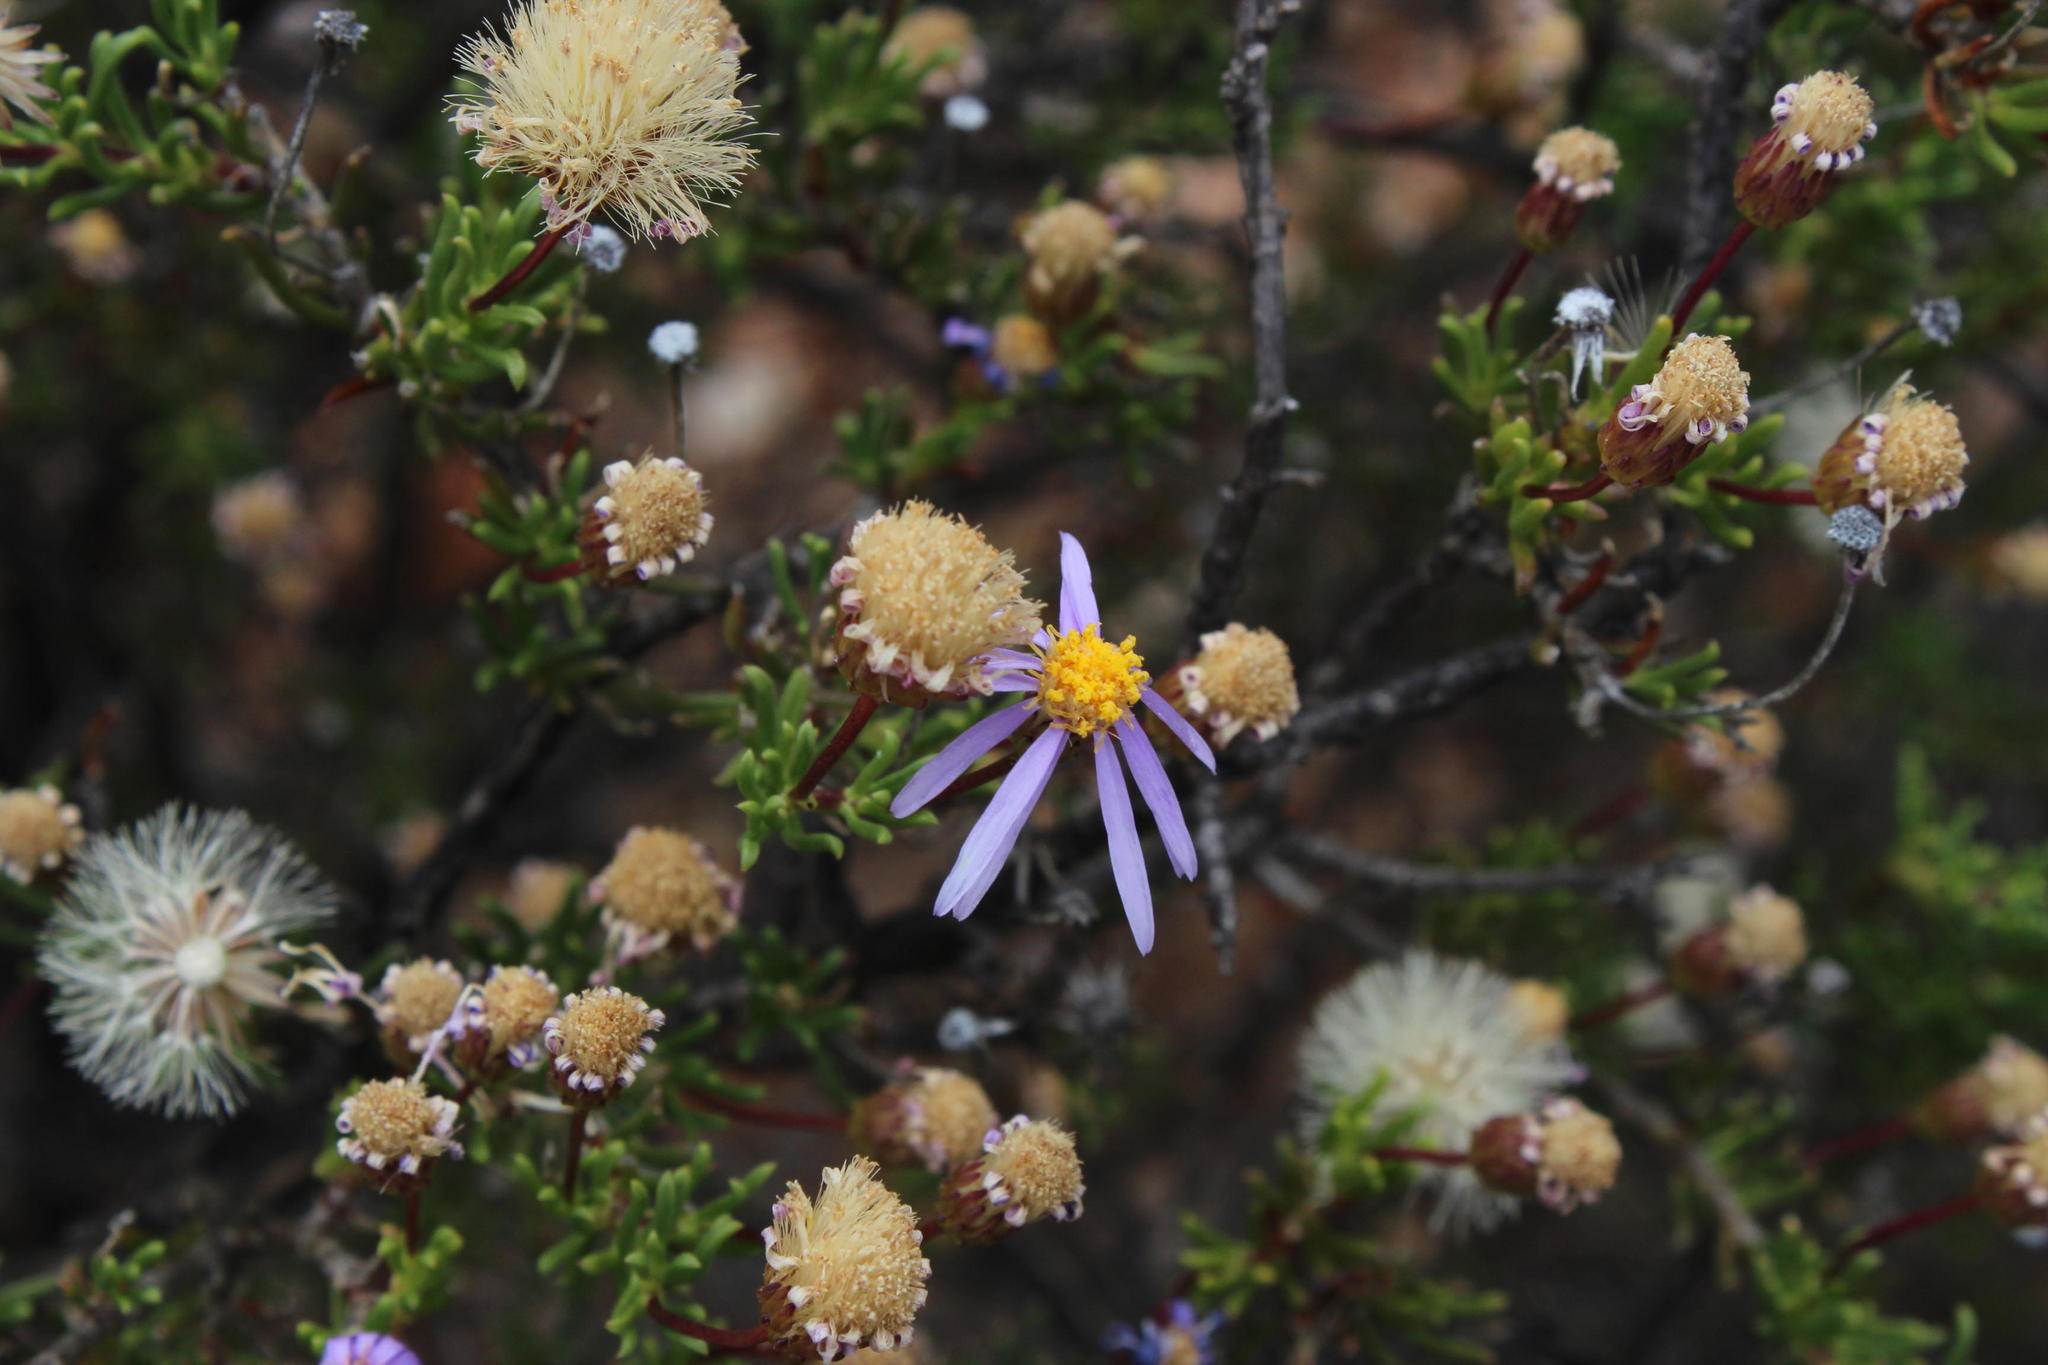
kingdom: Plantae
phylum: Tracheophyta
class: Magnoliopsida
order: Asterales
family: Asteraceae
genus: Felicia
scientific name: Felicia filifolia
